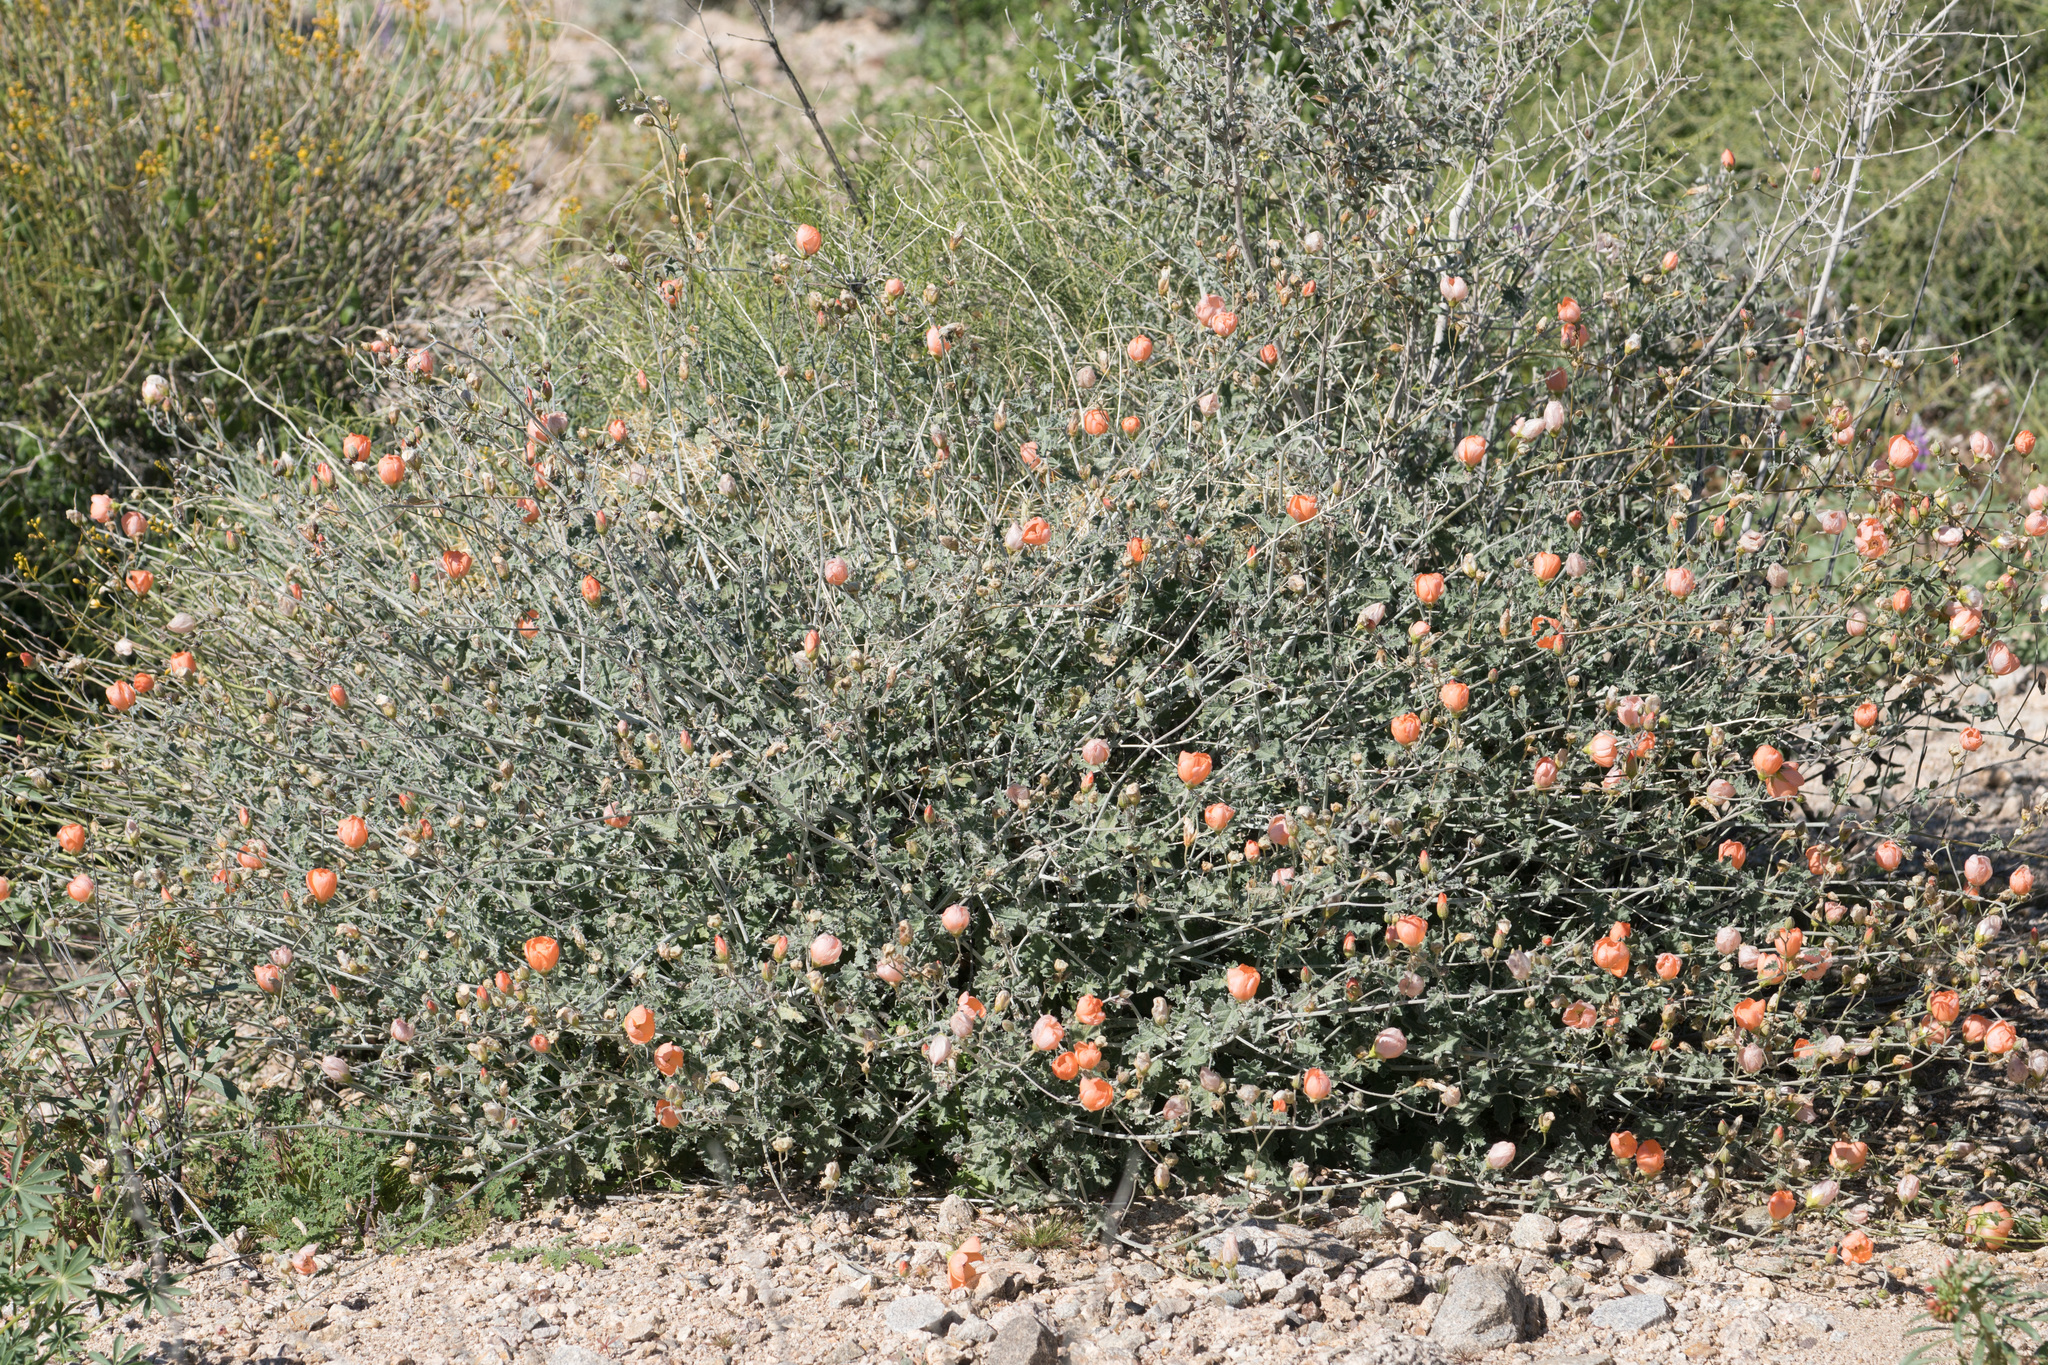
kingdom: Plantae
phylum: Tracheophyta
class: Magnoliopsida
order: Malvales
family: Malvaceae
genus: Sphaeralcea
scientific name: Sphaeralcea ambigua
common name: Apricot globe-mallow
